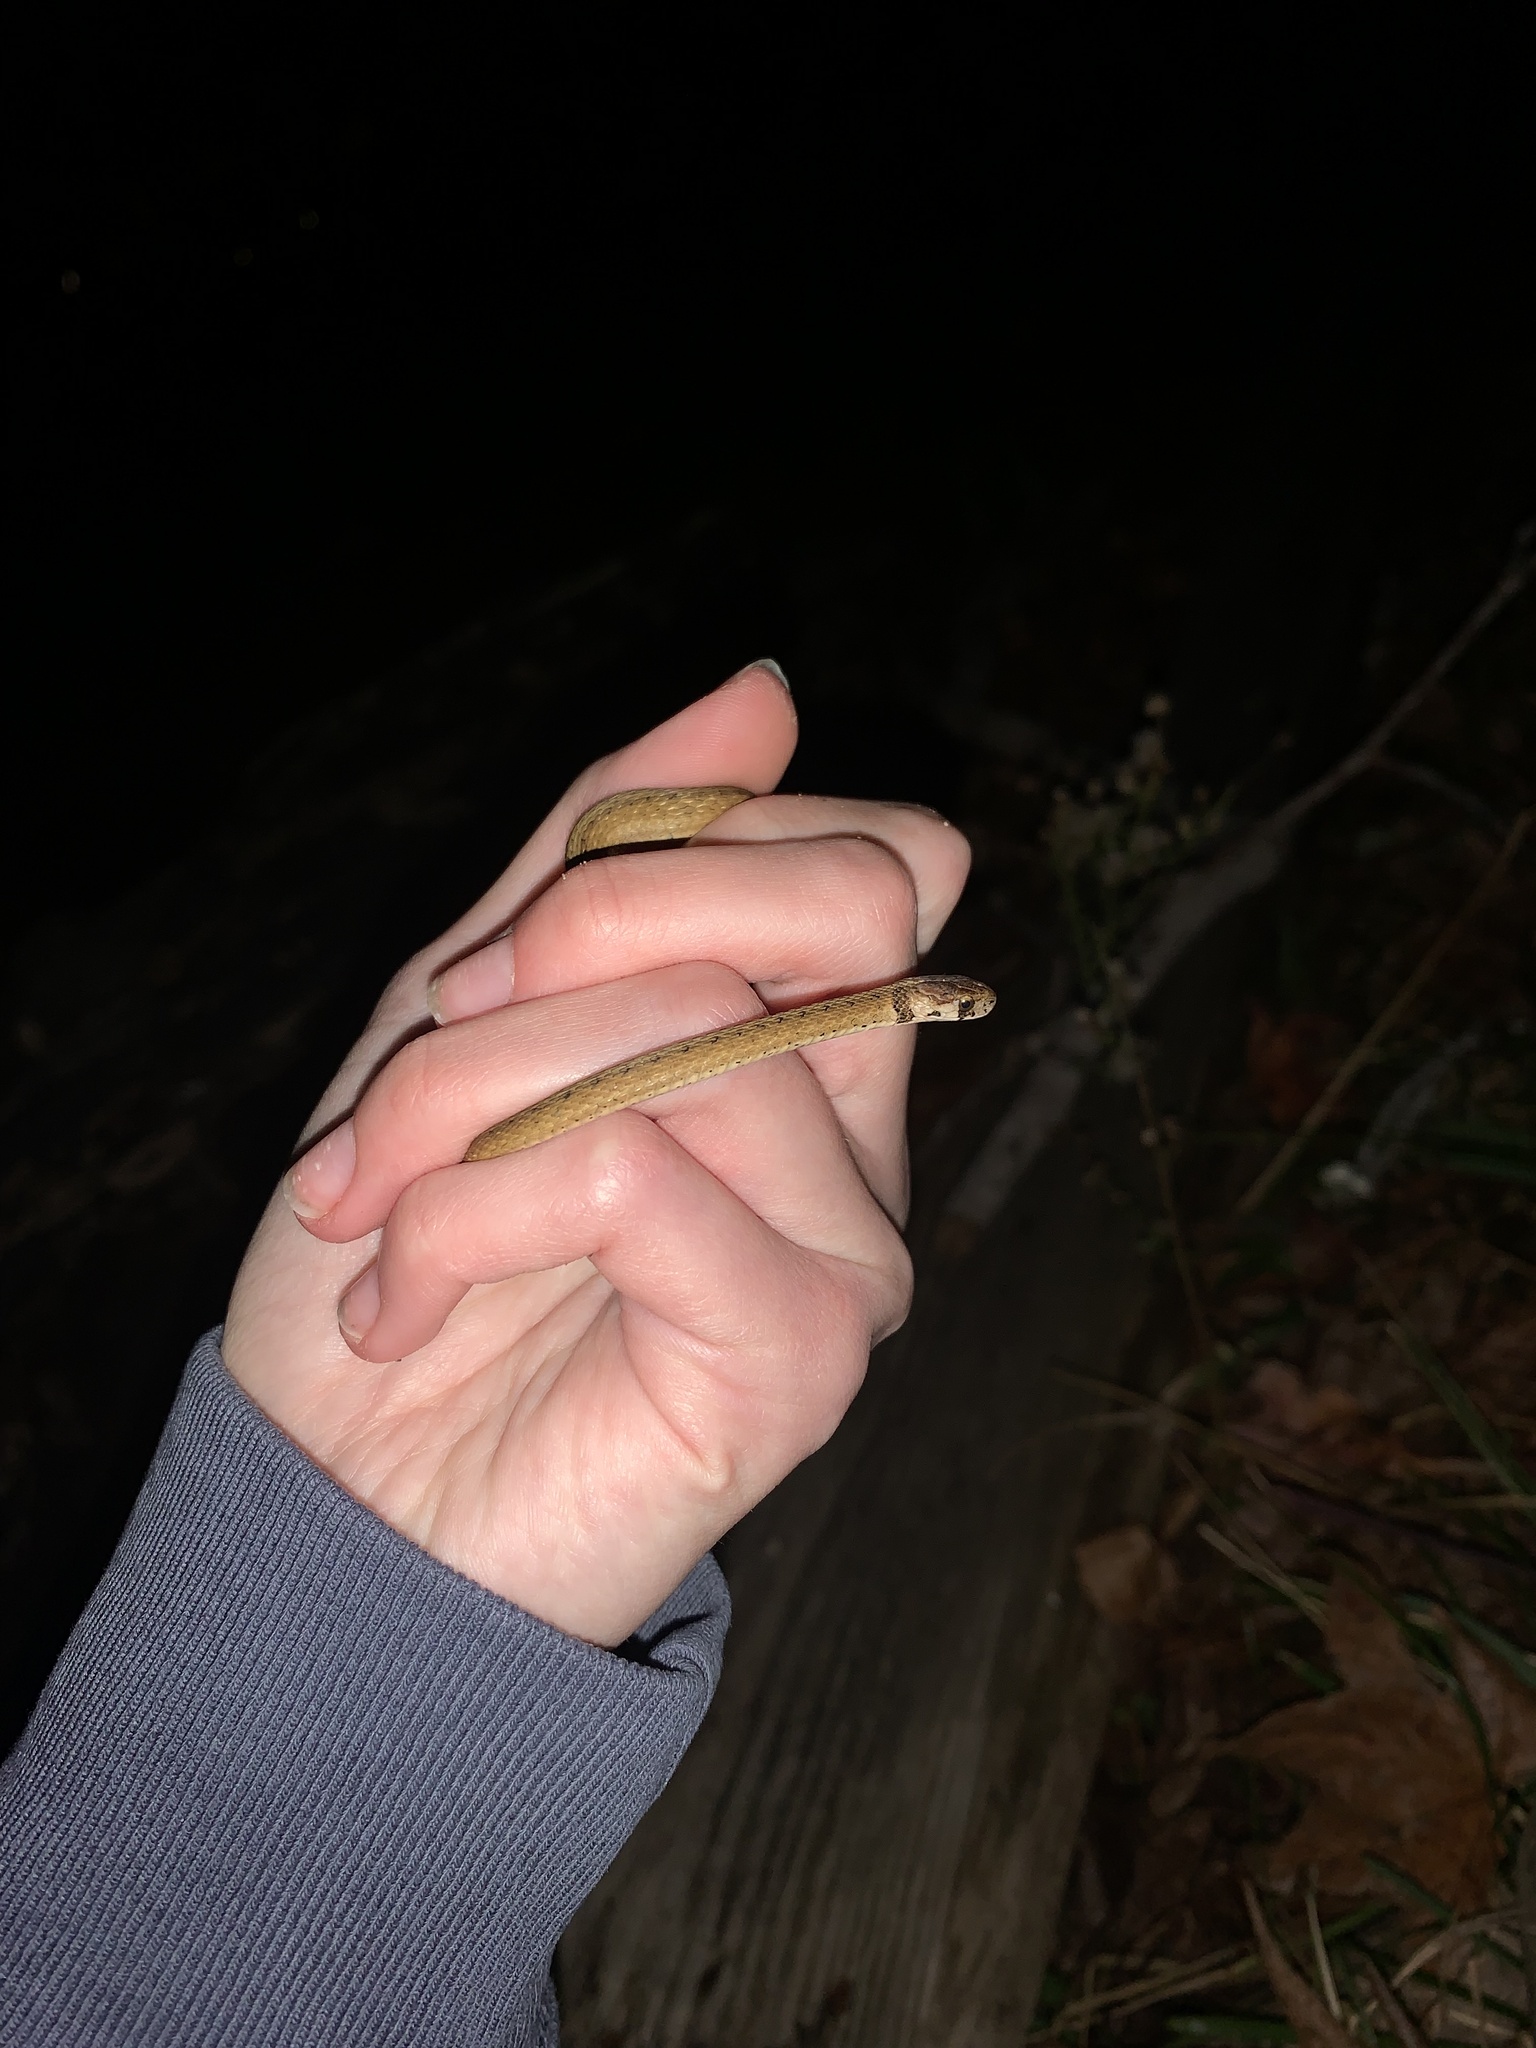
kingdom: Animalia
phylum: Chordata
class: Squamata
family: Colubridae
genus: Storeria
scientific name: Storeria dekayi
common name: (dekay’s) brown snake
